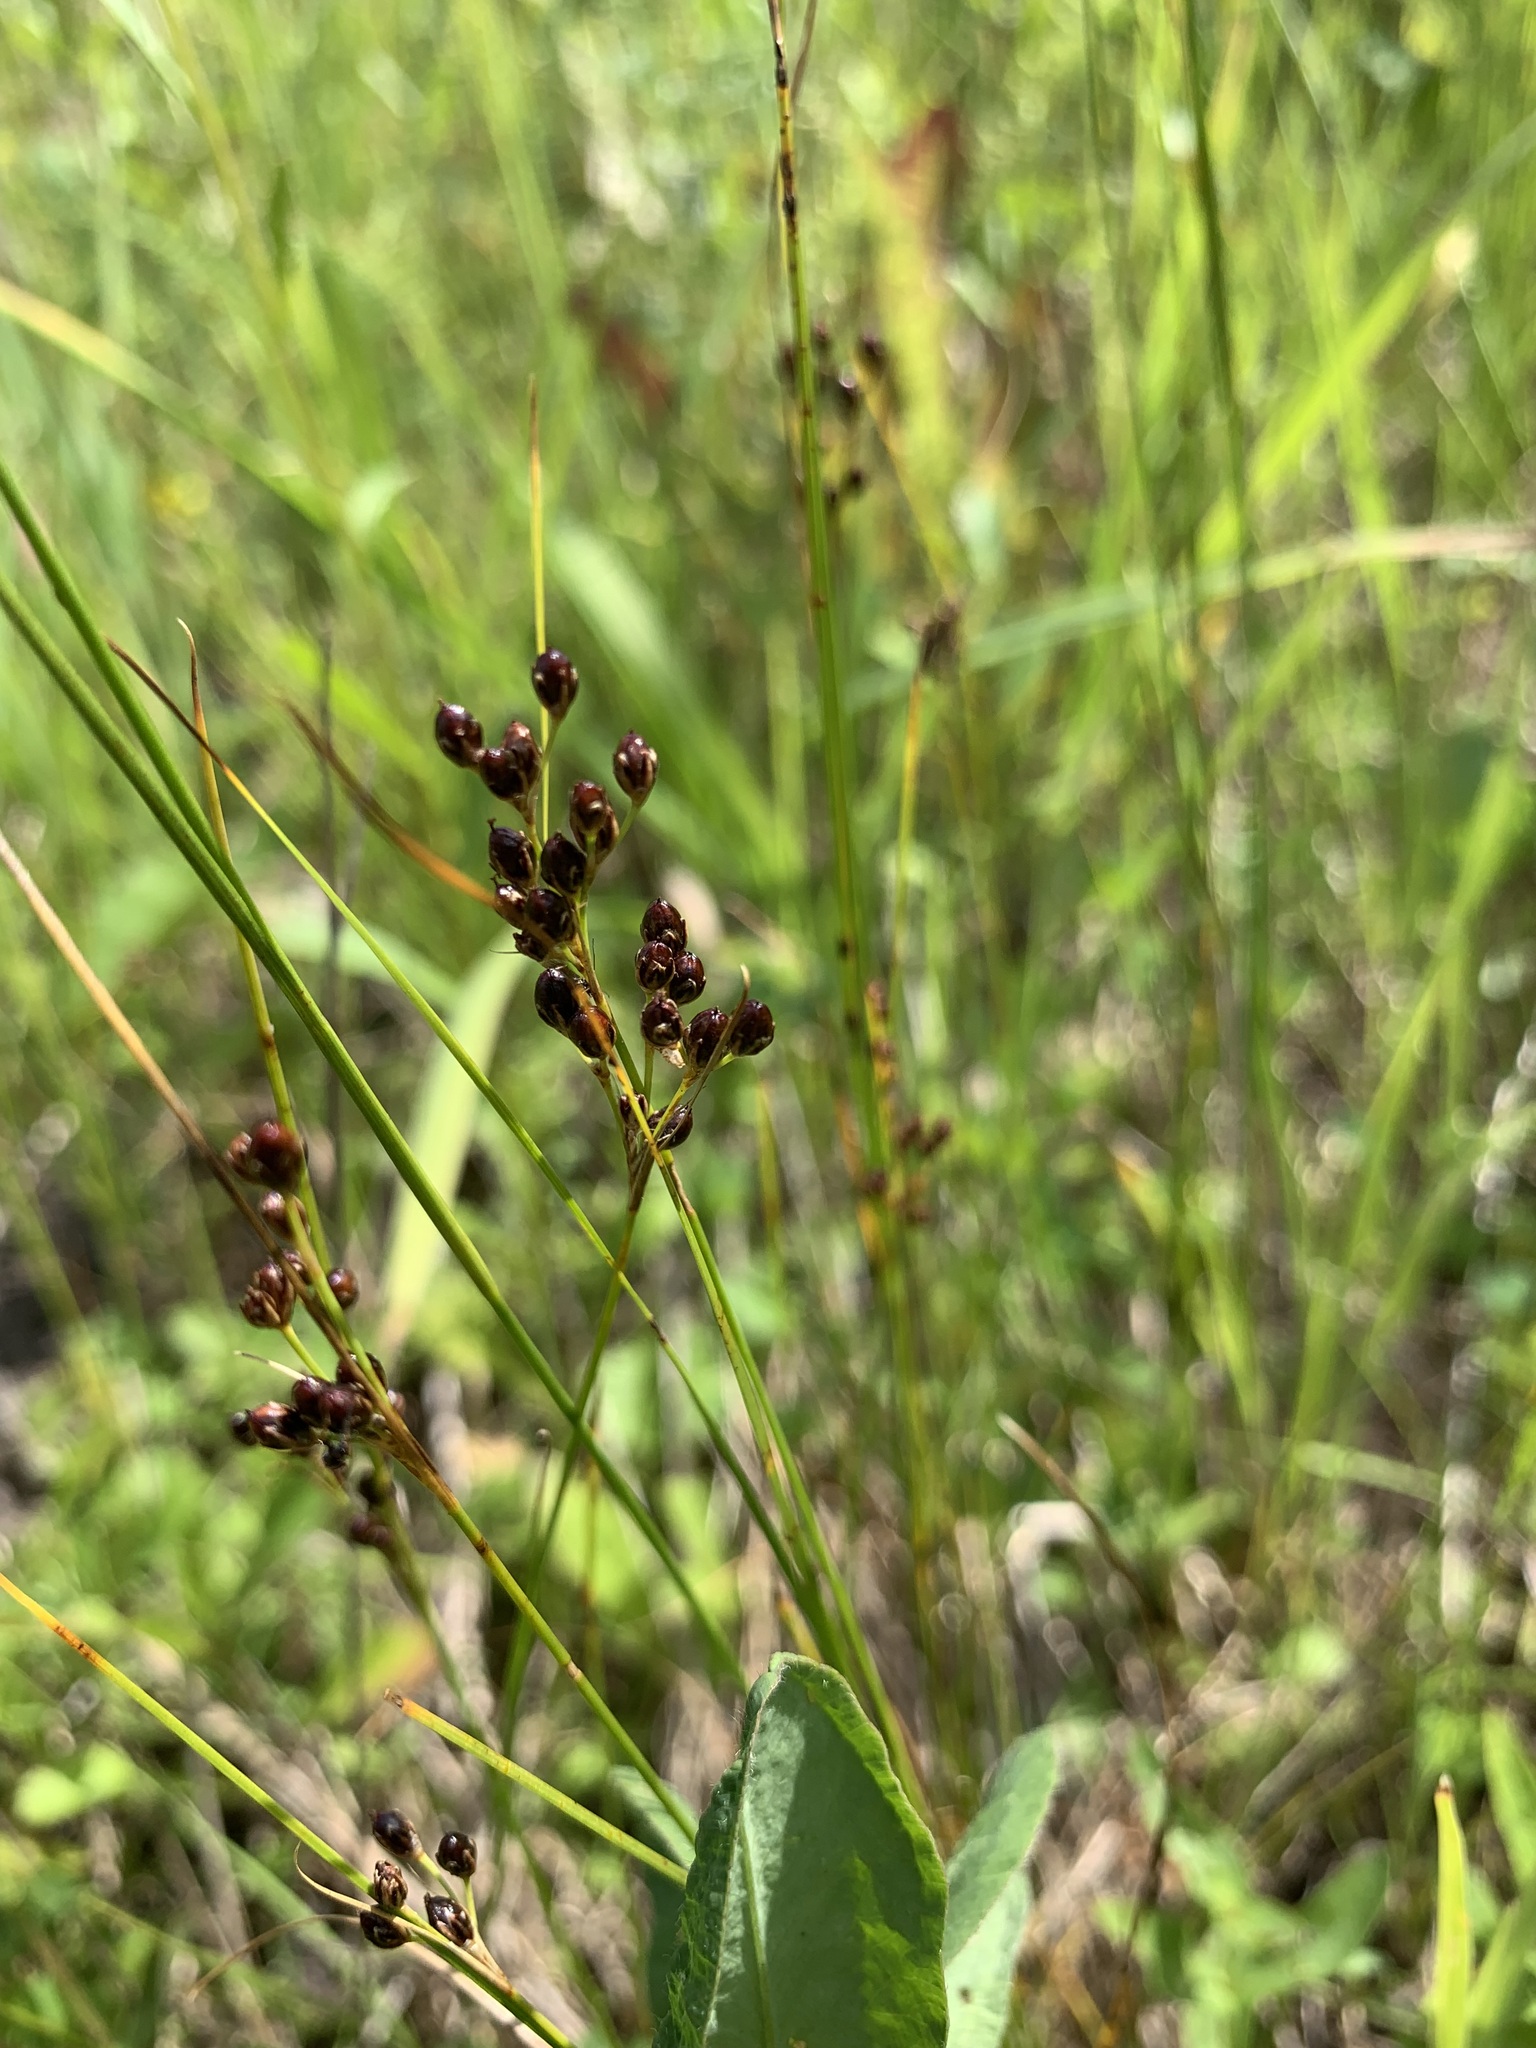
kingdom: Plantae
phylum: Tracheophyta
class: Liliopsida
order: Poales
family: Juncaceae
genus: Juncus
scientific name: Juncus compressus
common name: Round-fruited rush
